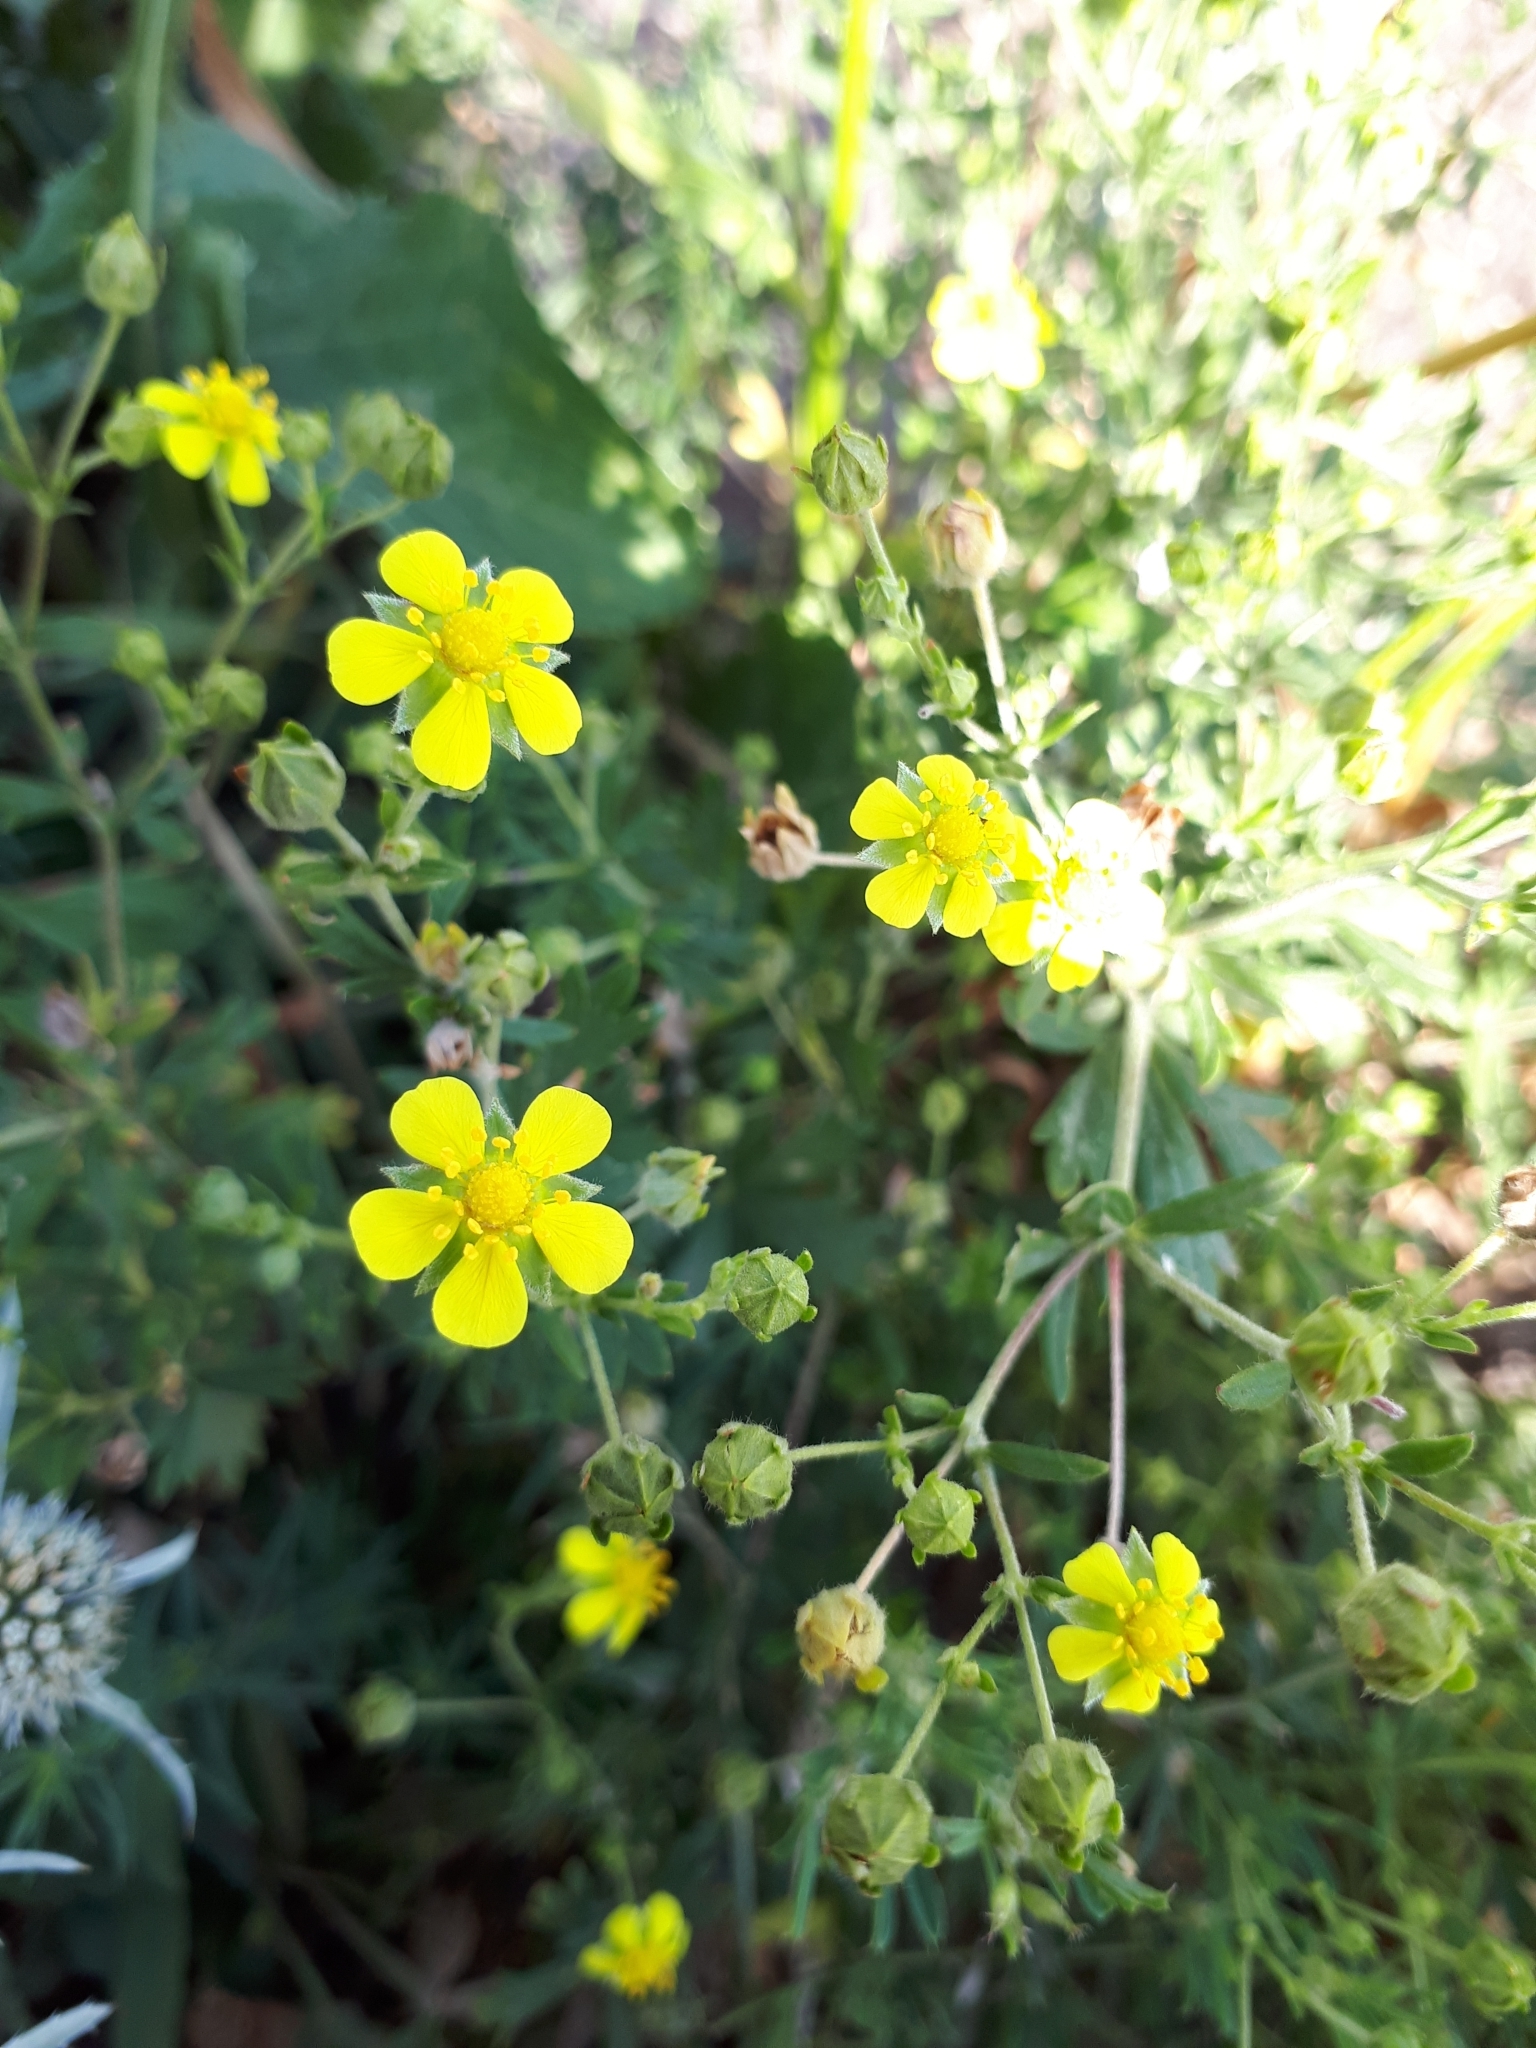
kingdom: Plantae
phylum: Tracheophyta
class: Magnoliopsida
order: Rosales
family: Rosaceae
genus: Potentilla
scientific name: Potentilla argentea
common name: Hoary cinquefoil
